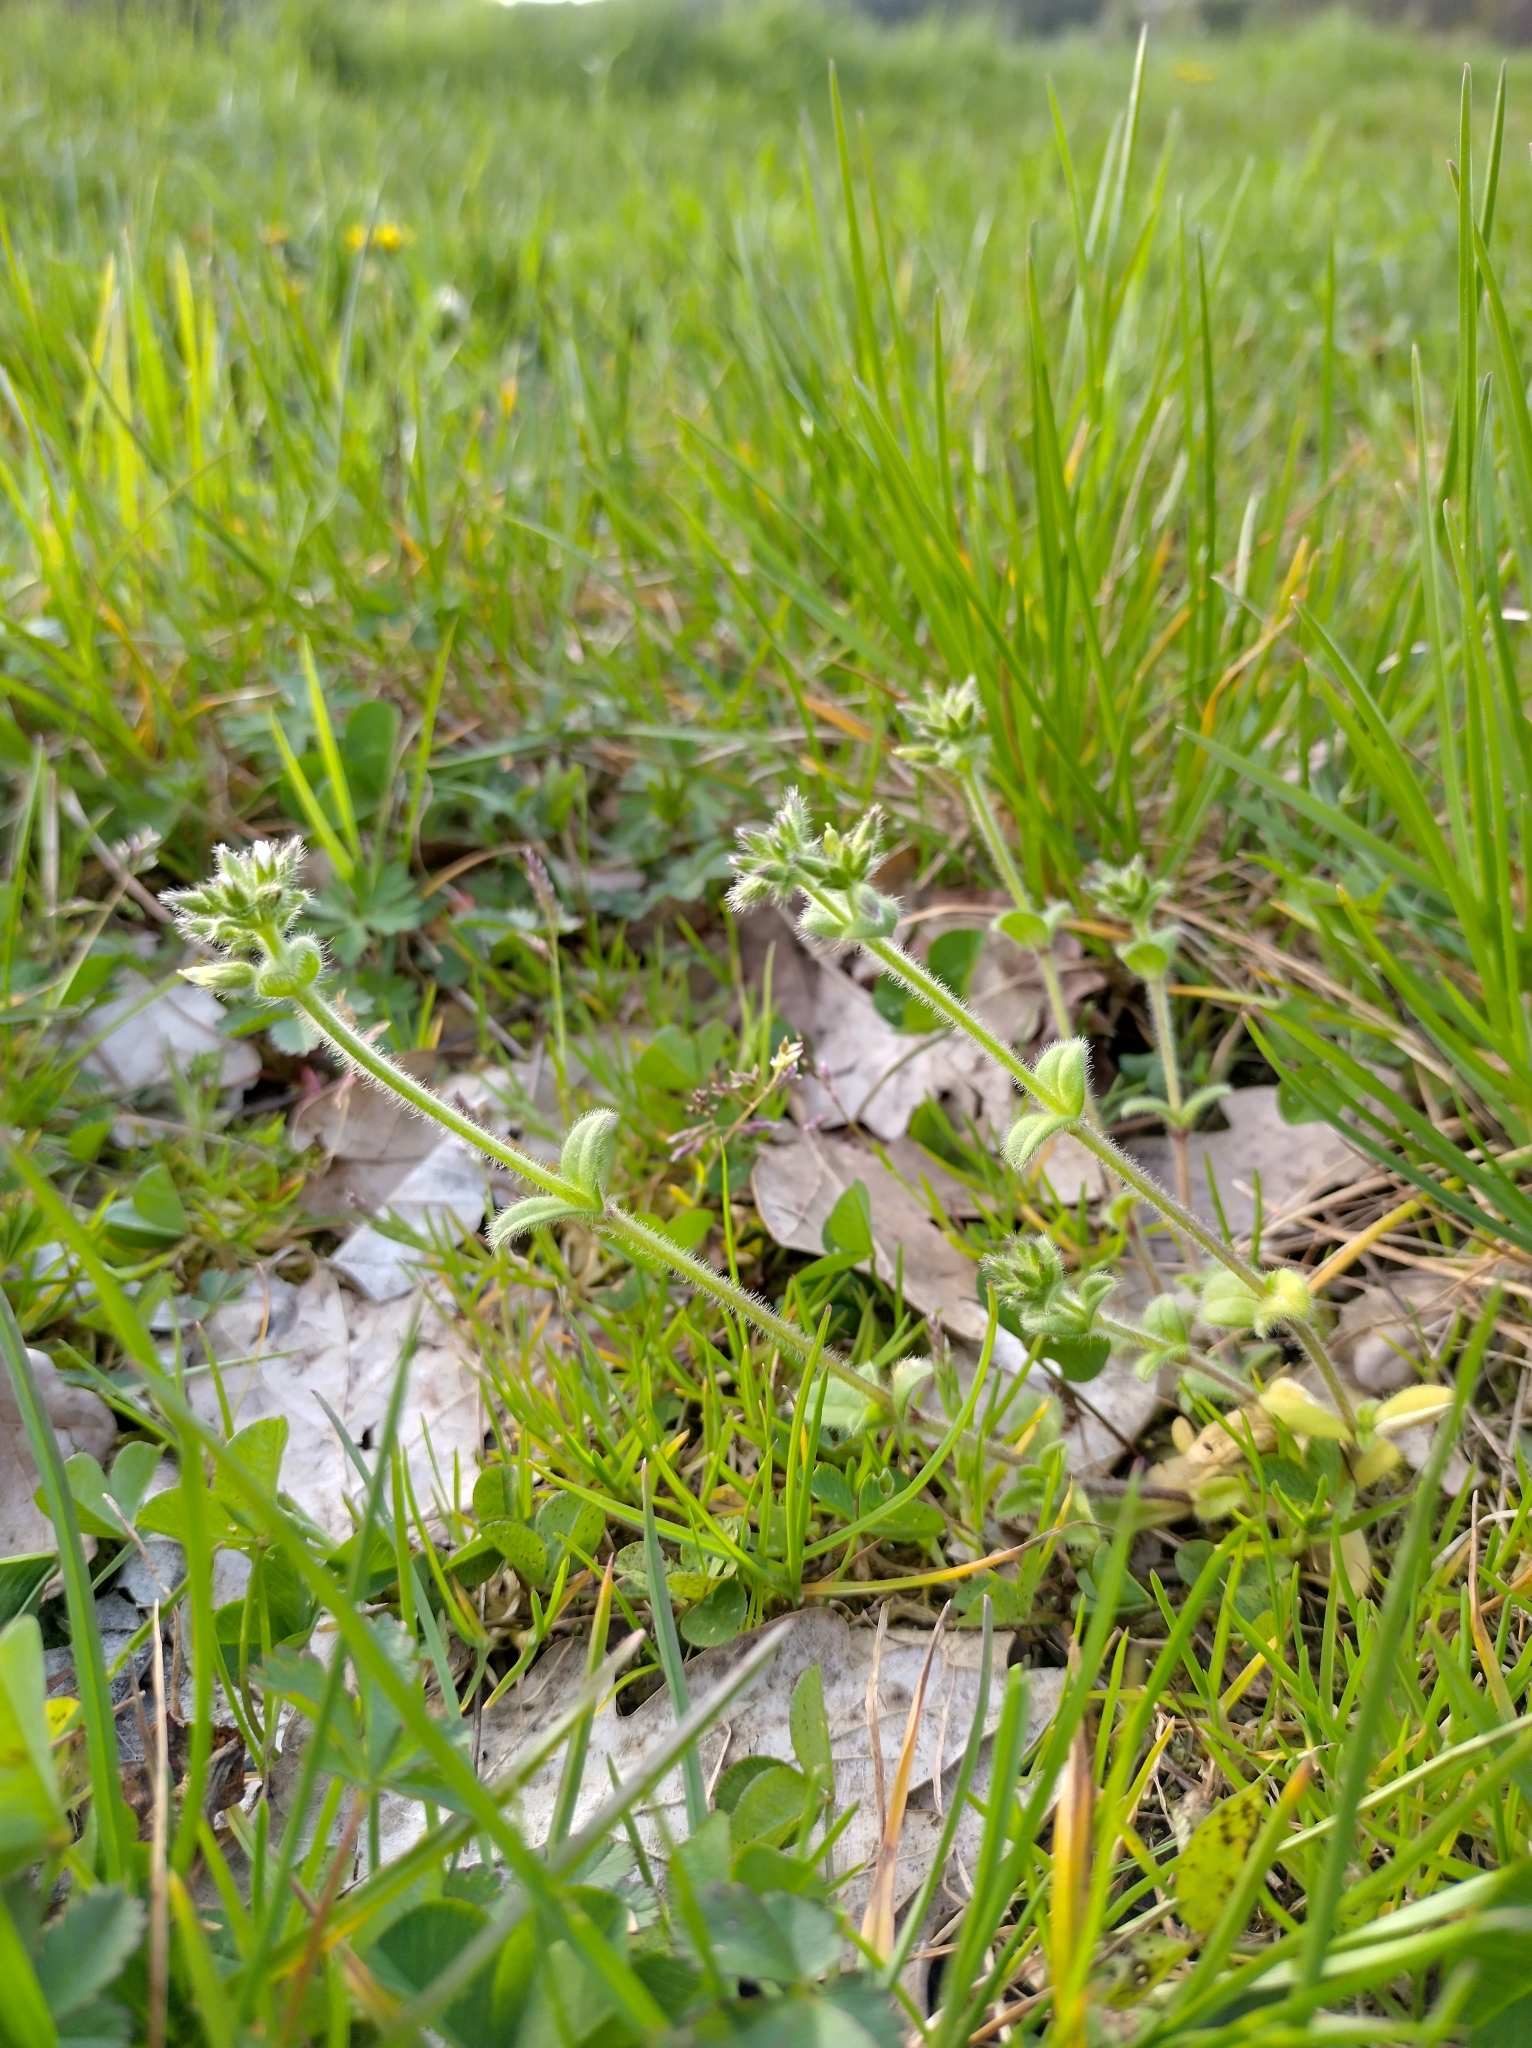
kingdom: Plantae
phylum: Tracheophyta
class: Magnoliopsida
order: Caryophyllales
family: Caryophyllaceae
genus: Cerastium
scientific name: Cerastium glomeratum
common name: Sticky chickweed
